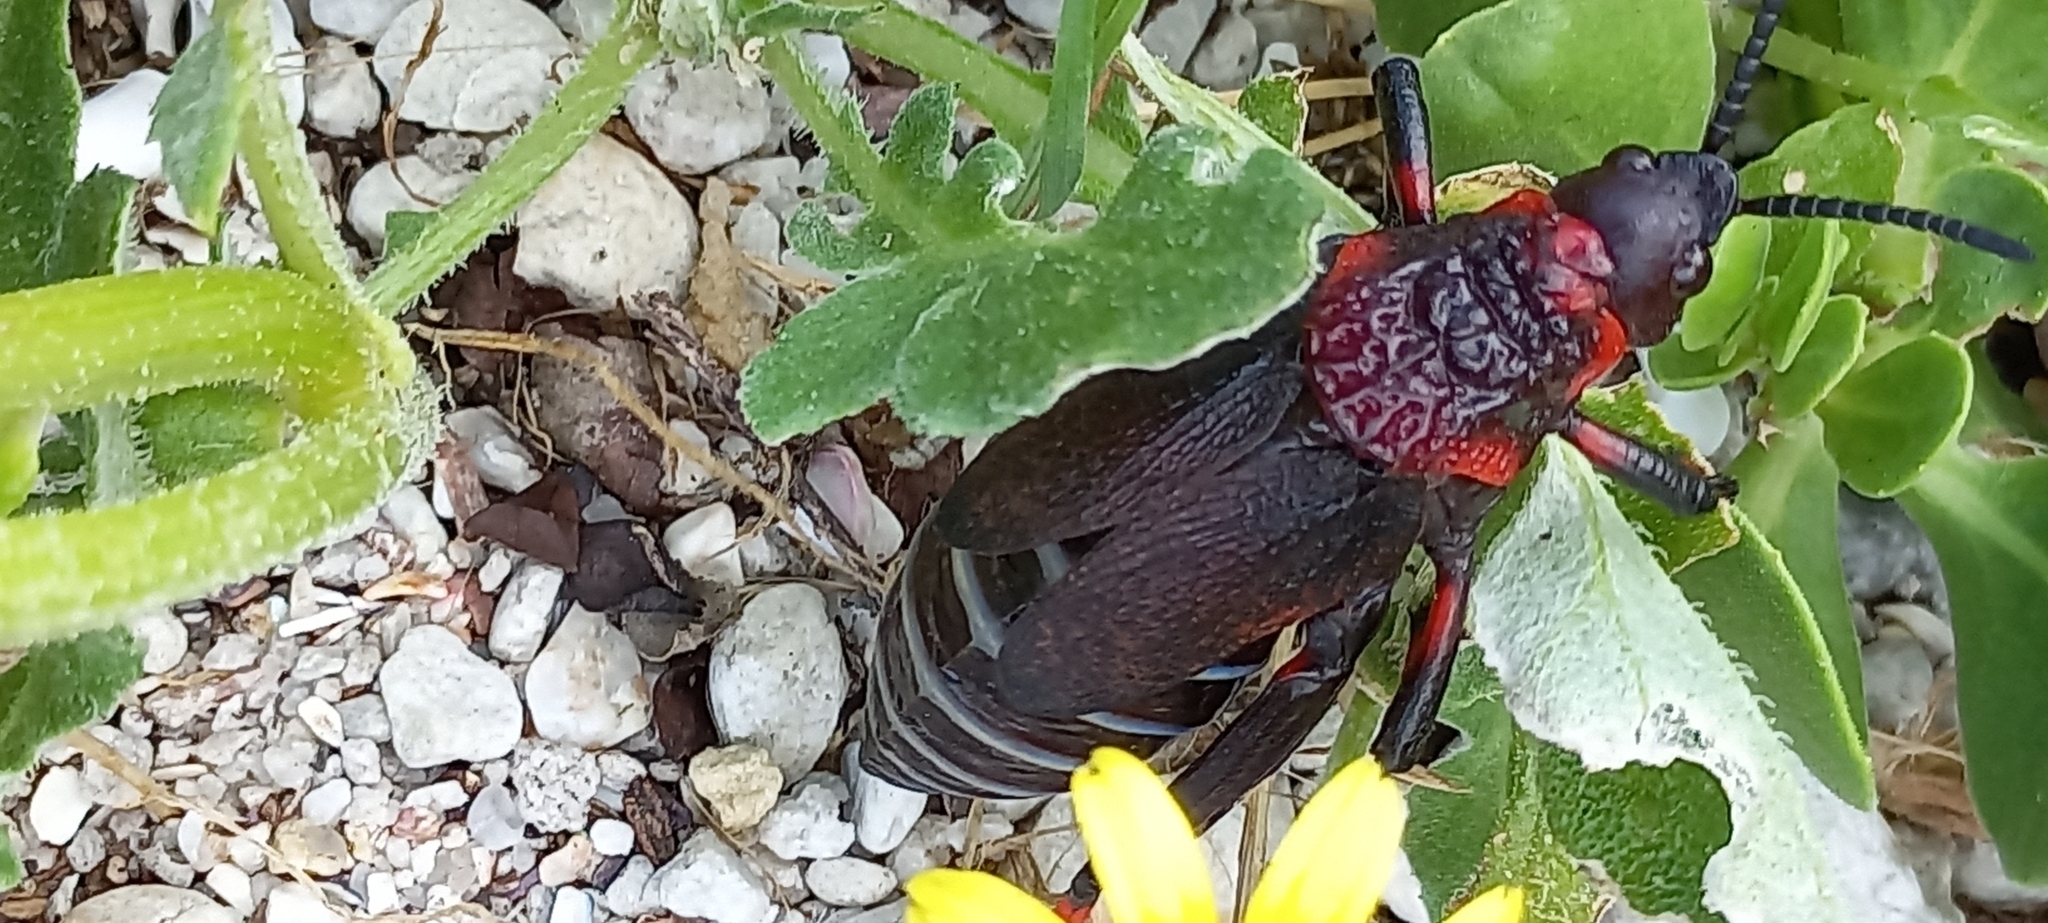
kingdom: Animalia
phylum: Arthropoda
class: Insecta
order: Orthoptera
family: Pyrgomorphidae
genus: Dictyophorus
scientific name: Dictyophorus spumans
